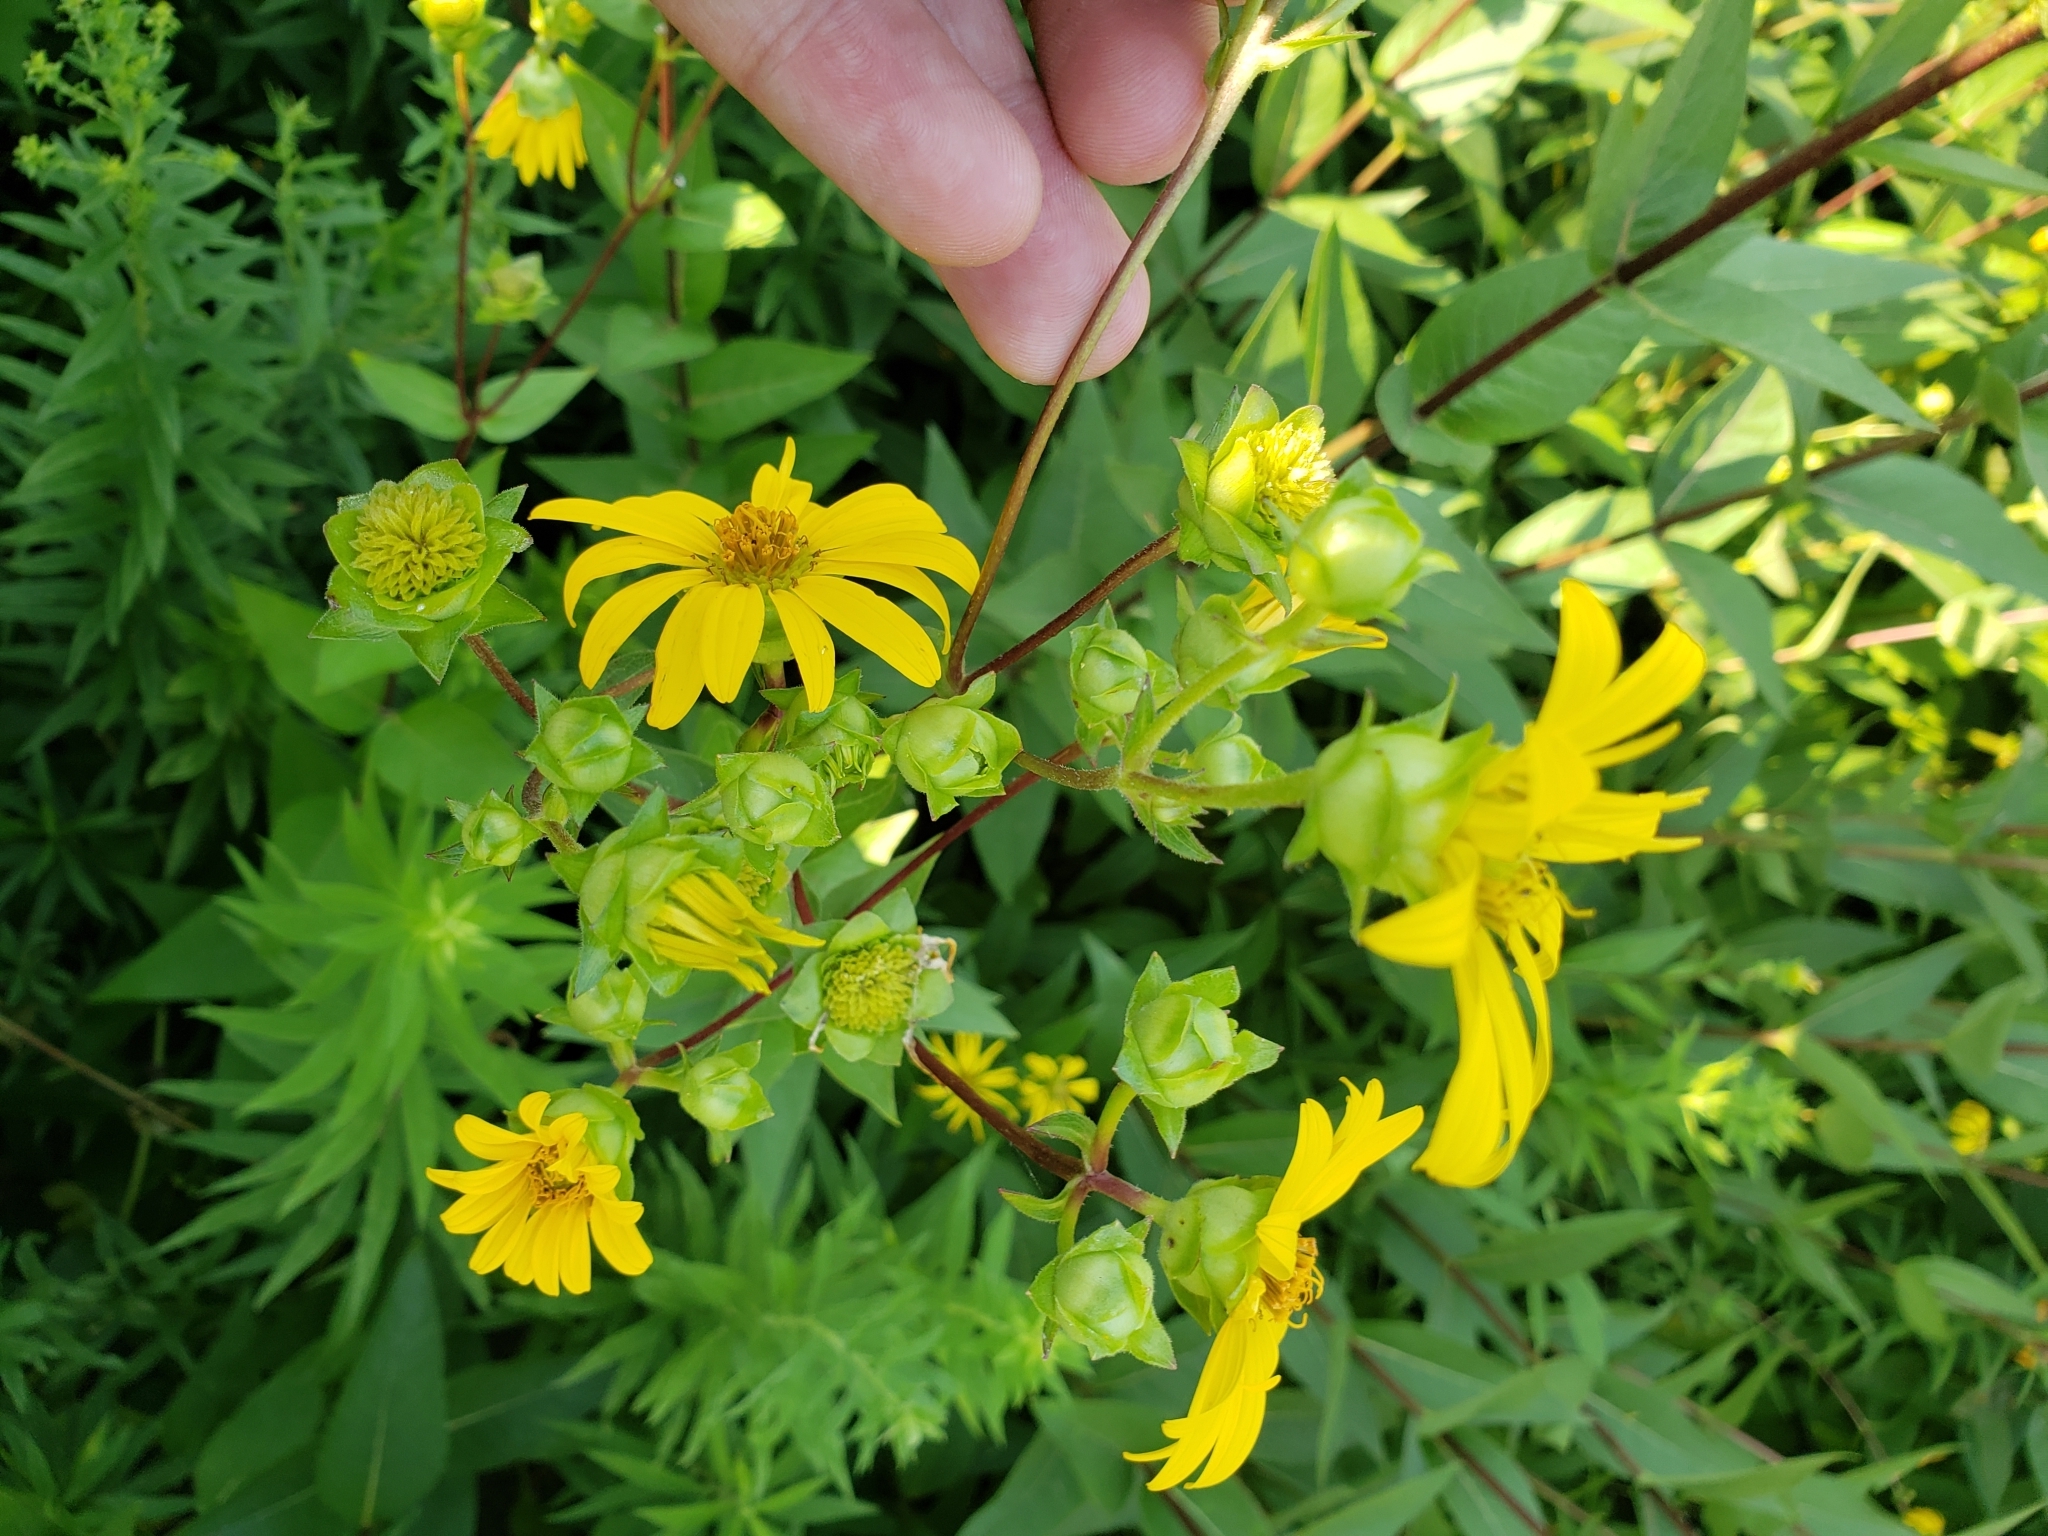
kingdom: Plantae
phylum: Tracheophyta
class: Magnoliopsida
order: Asterales
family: Asteraceae
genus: Silphium
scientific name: Silphium integrifolium
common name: Whole-leaf rosinweed
